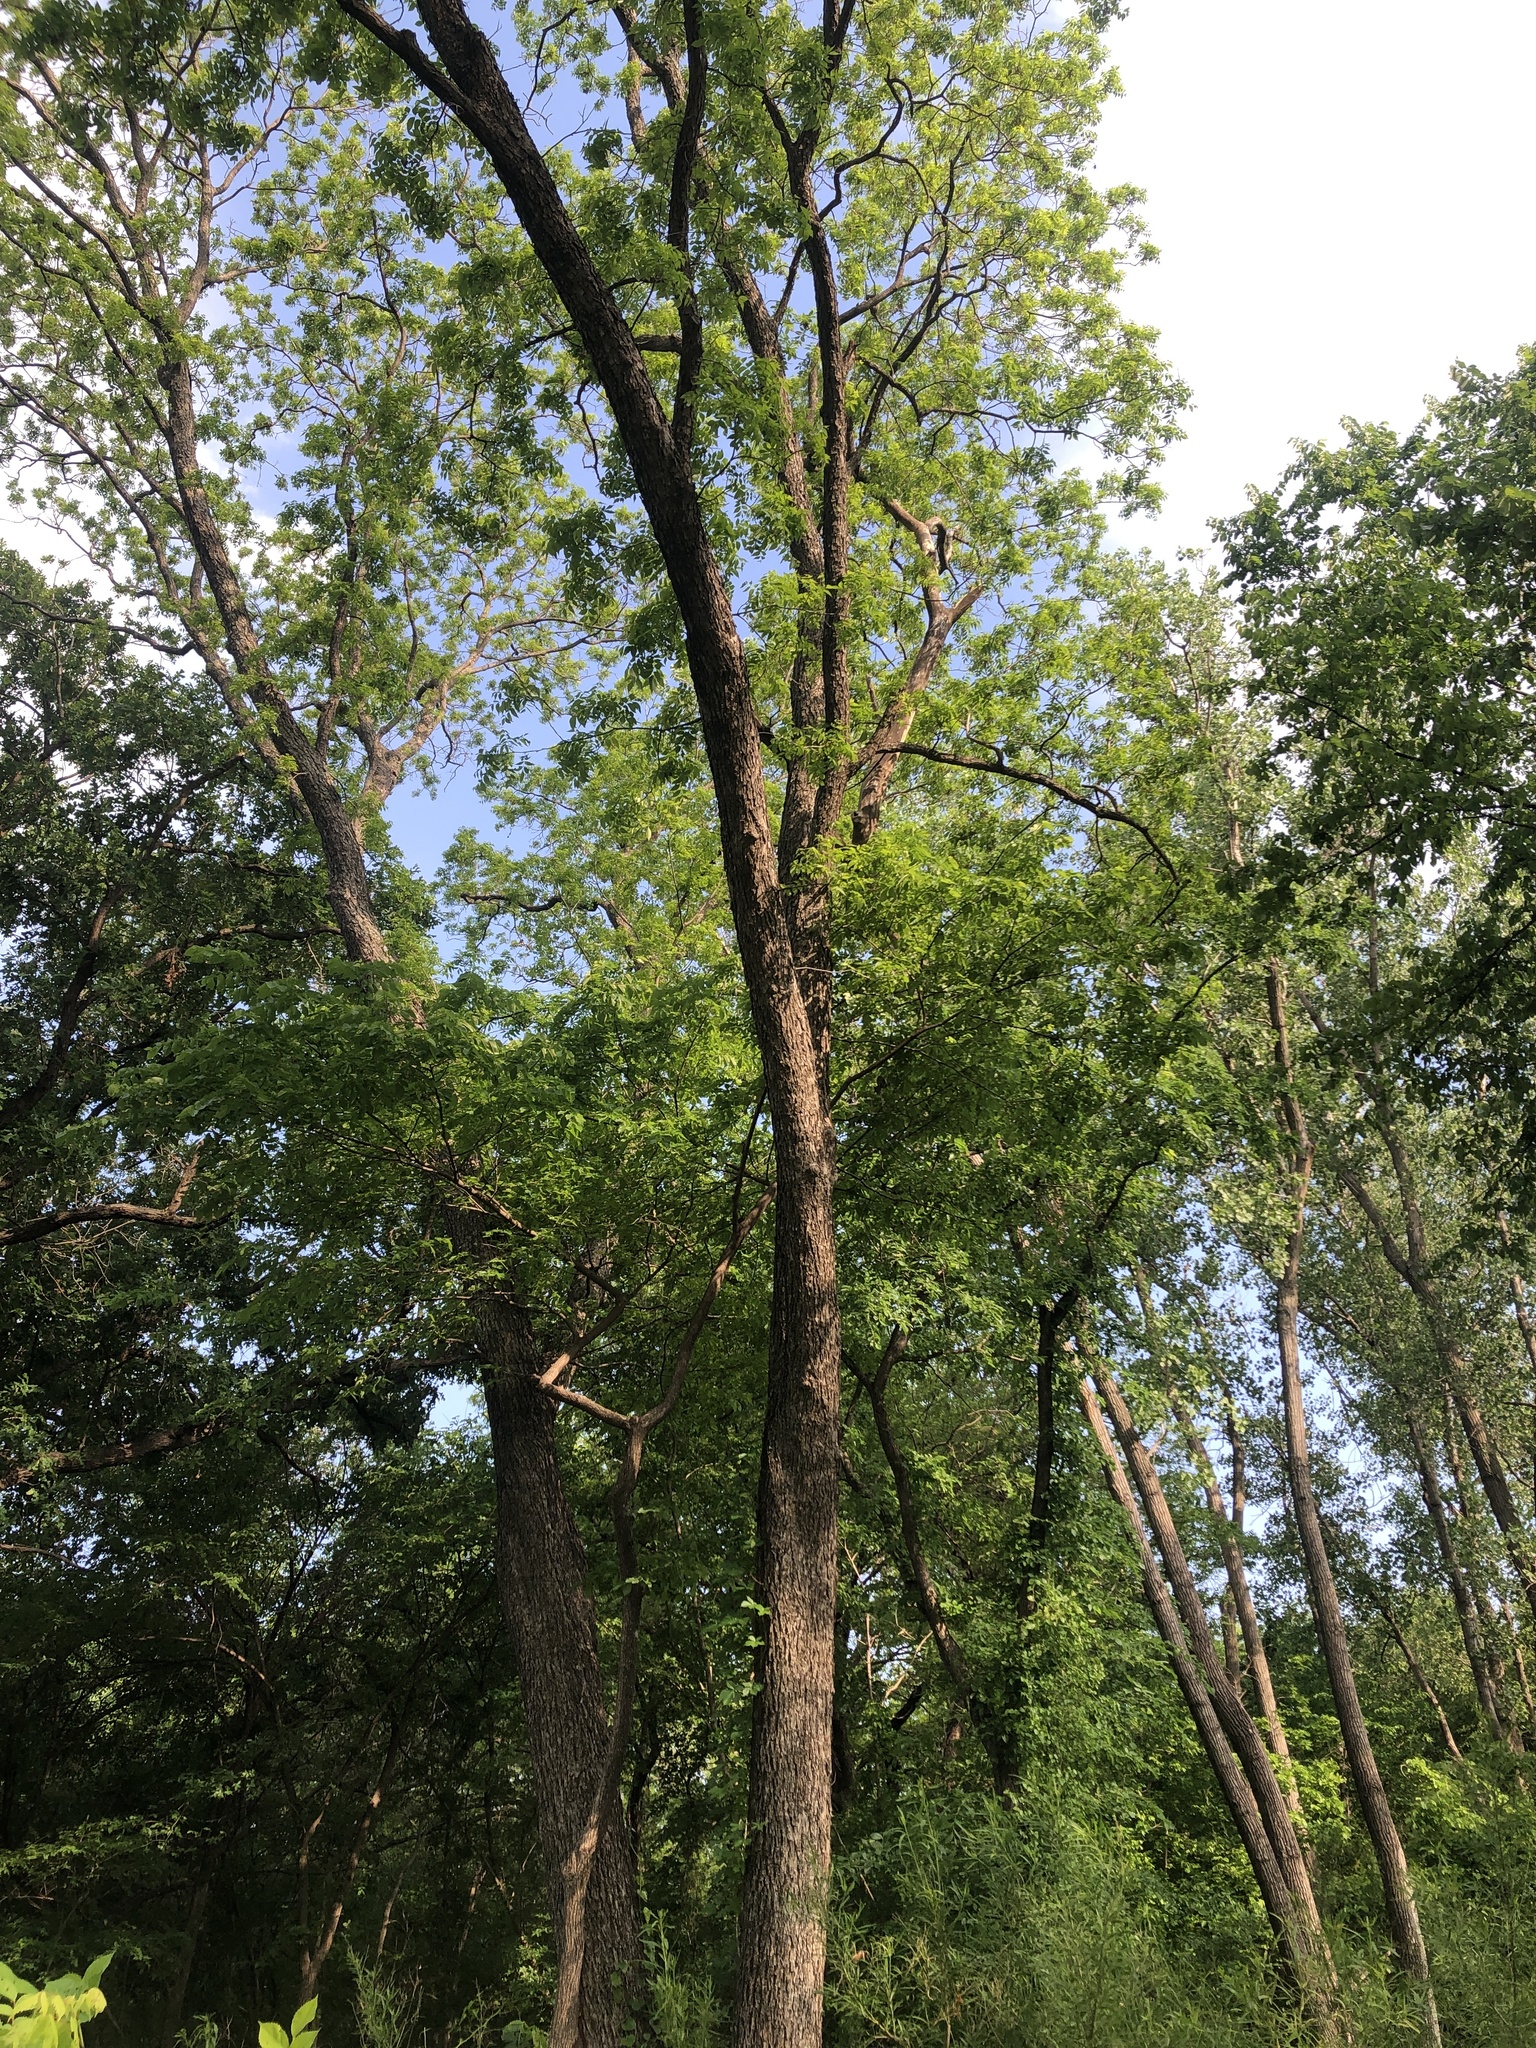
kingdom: Plantae
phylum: Tracheophyta
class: Magnoliopsida
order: Fagales
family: Juglandaceae
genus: Carya
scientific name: Carya illinoinensis
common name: Pecan
